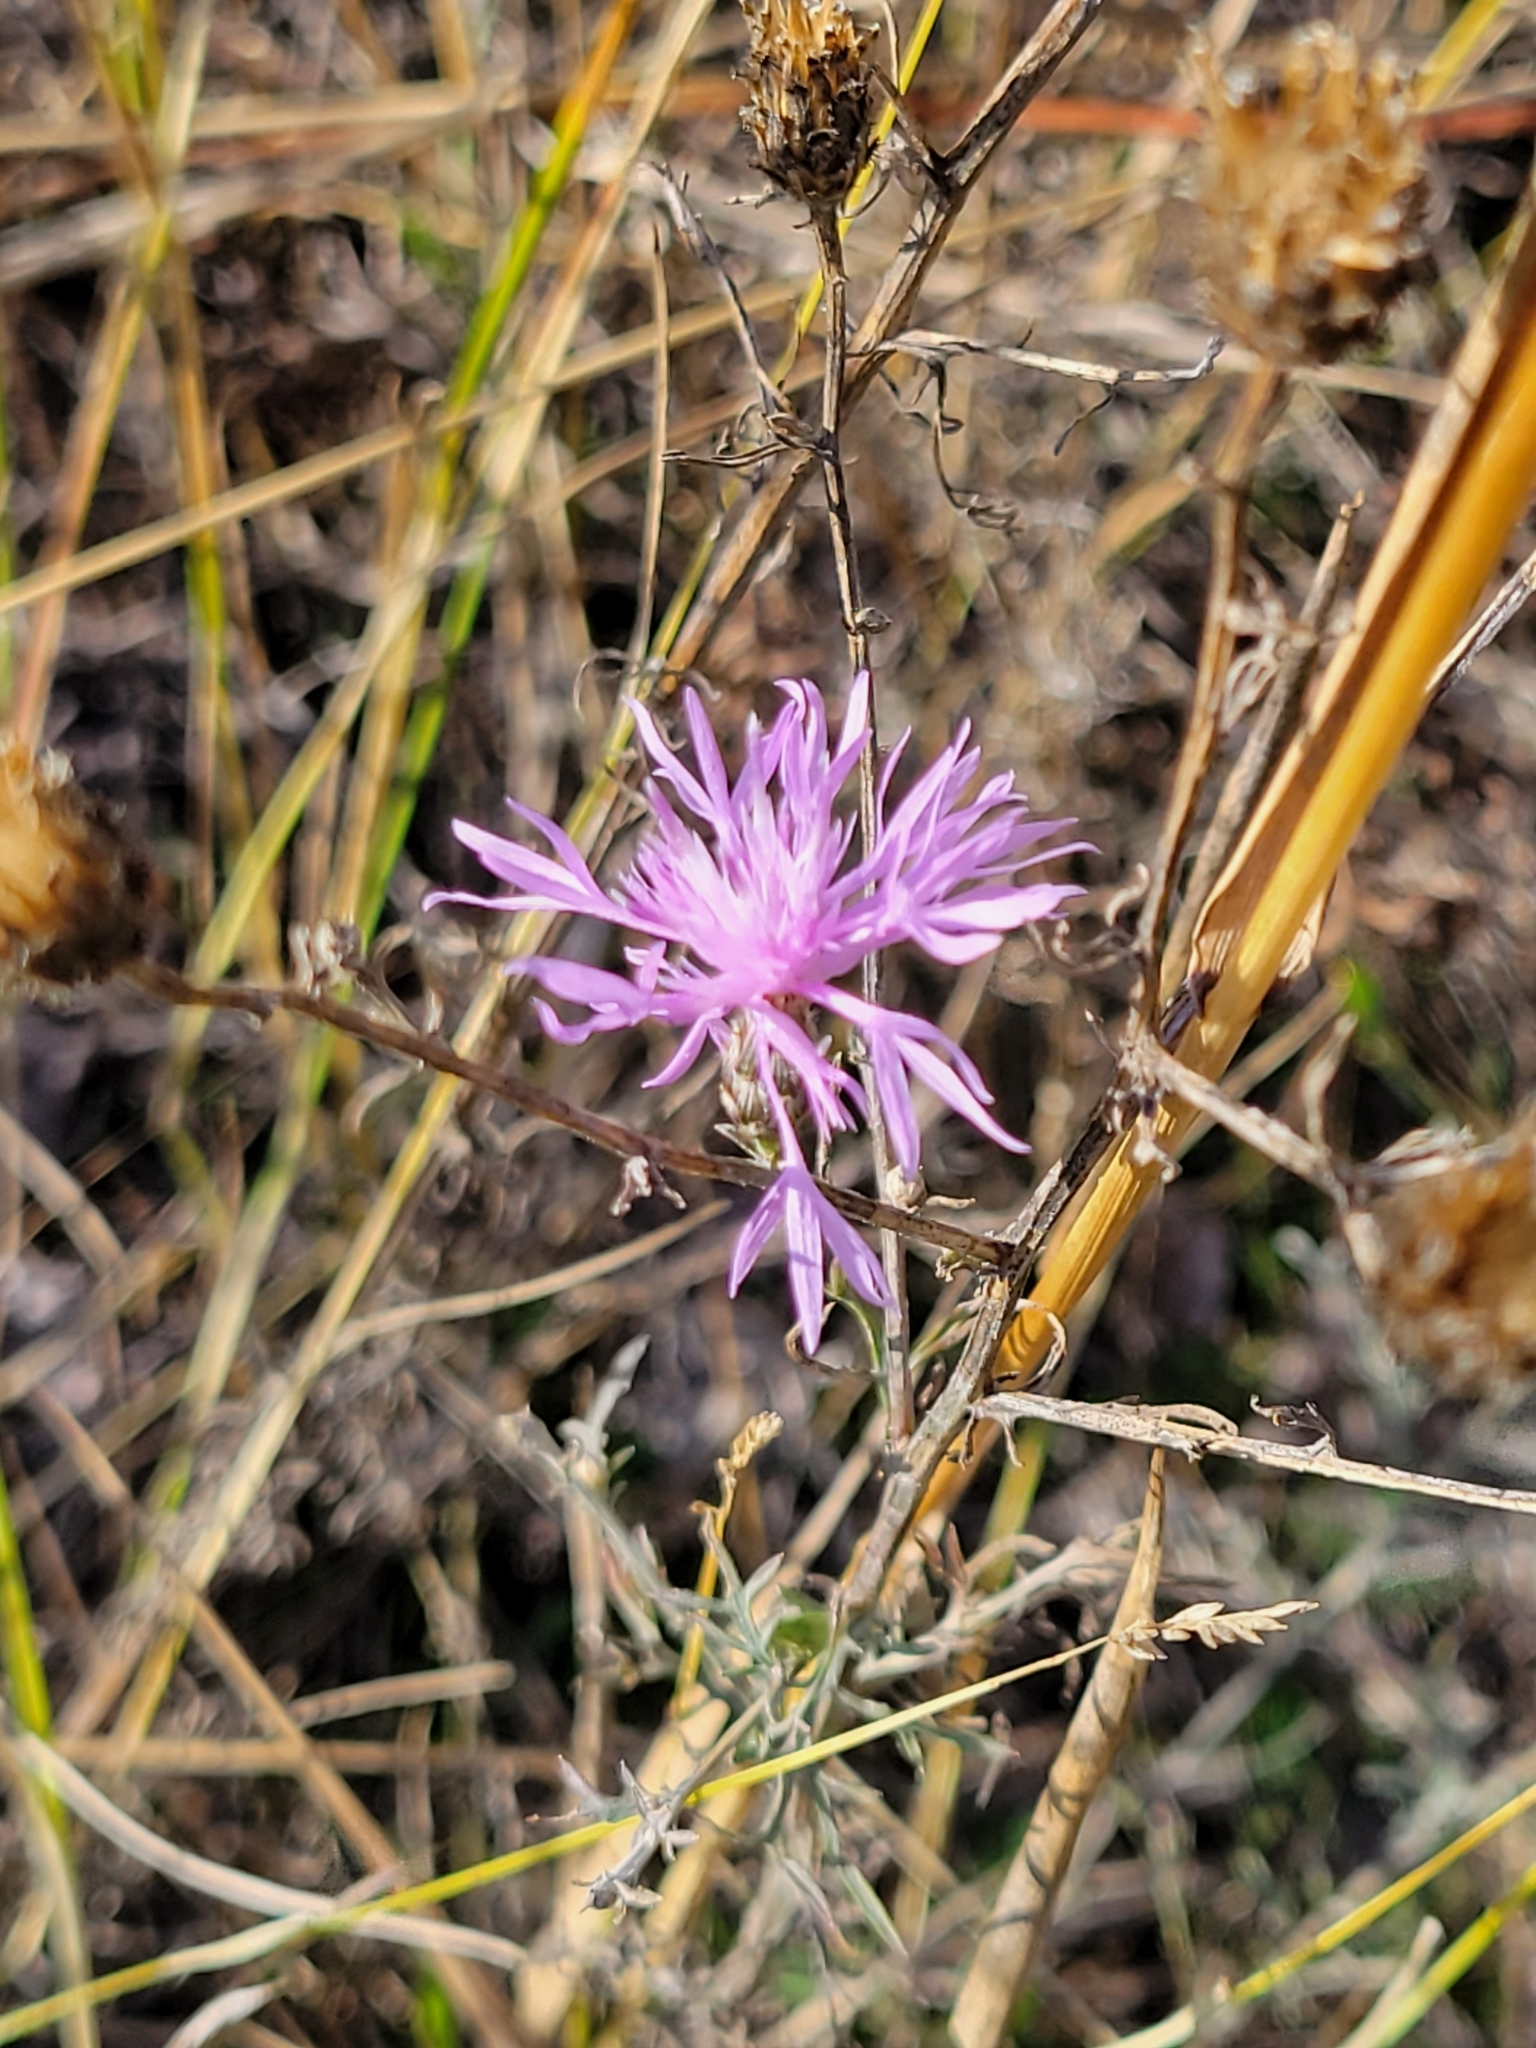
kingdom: Plantae
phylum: Tracheophyta
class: Magnoliopsida
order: Asterales
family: Asteraceae
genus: Centaurea
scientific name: Centaurea stoebe
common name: Spotted knapweed
